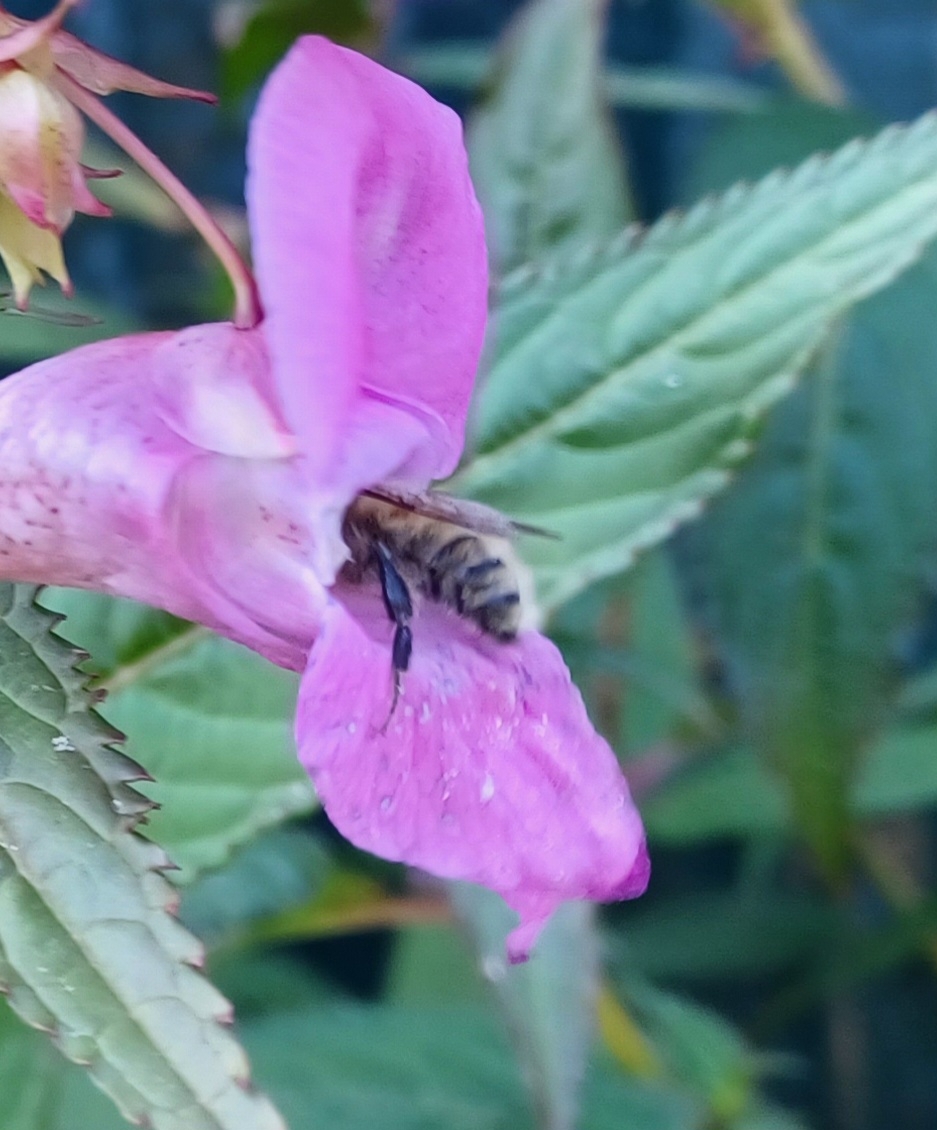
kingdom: Animalia
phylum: Arthropoda
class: Insecta
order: Hymenoptera
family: Apidae
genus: Bombus
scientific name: Bombus humilis
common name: Brown-banded carder-bee
